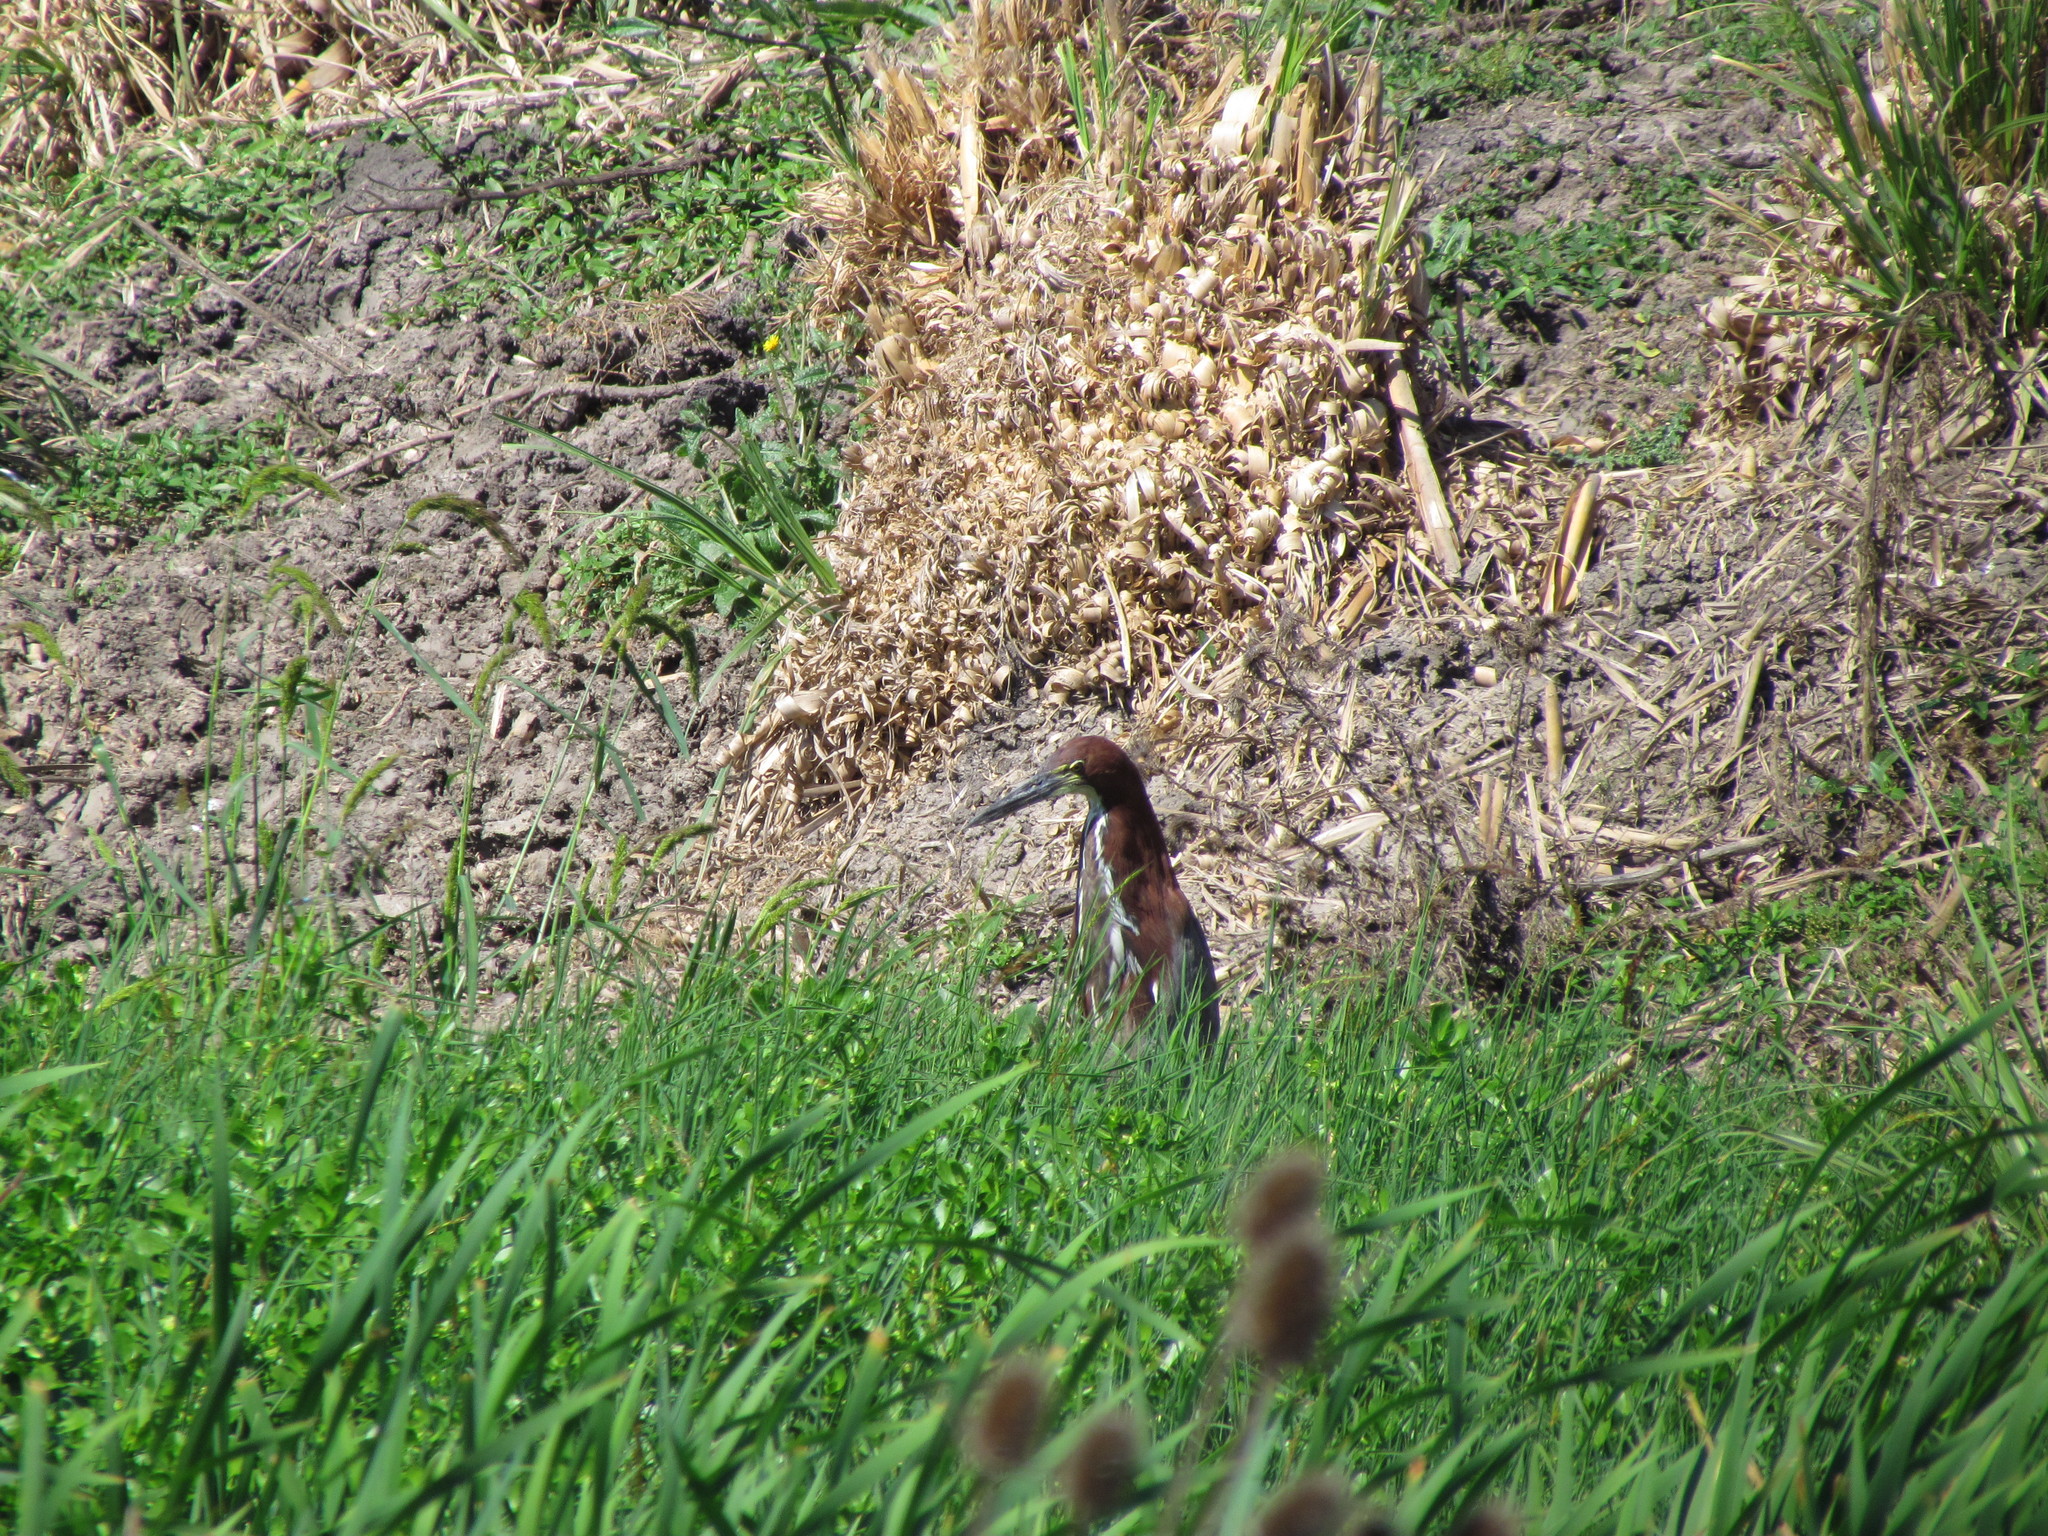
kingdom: Animalia
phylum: Chordata
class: Aves
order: Pelecaniformes
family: Ardeidae
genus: Tigrisoma
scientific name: Tigrisoma lineatum
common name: Rufescent tiger-heron
